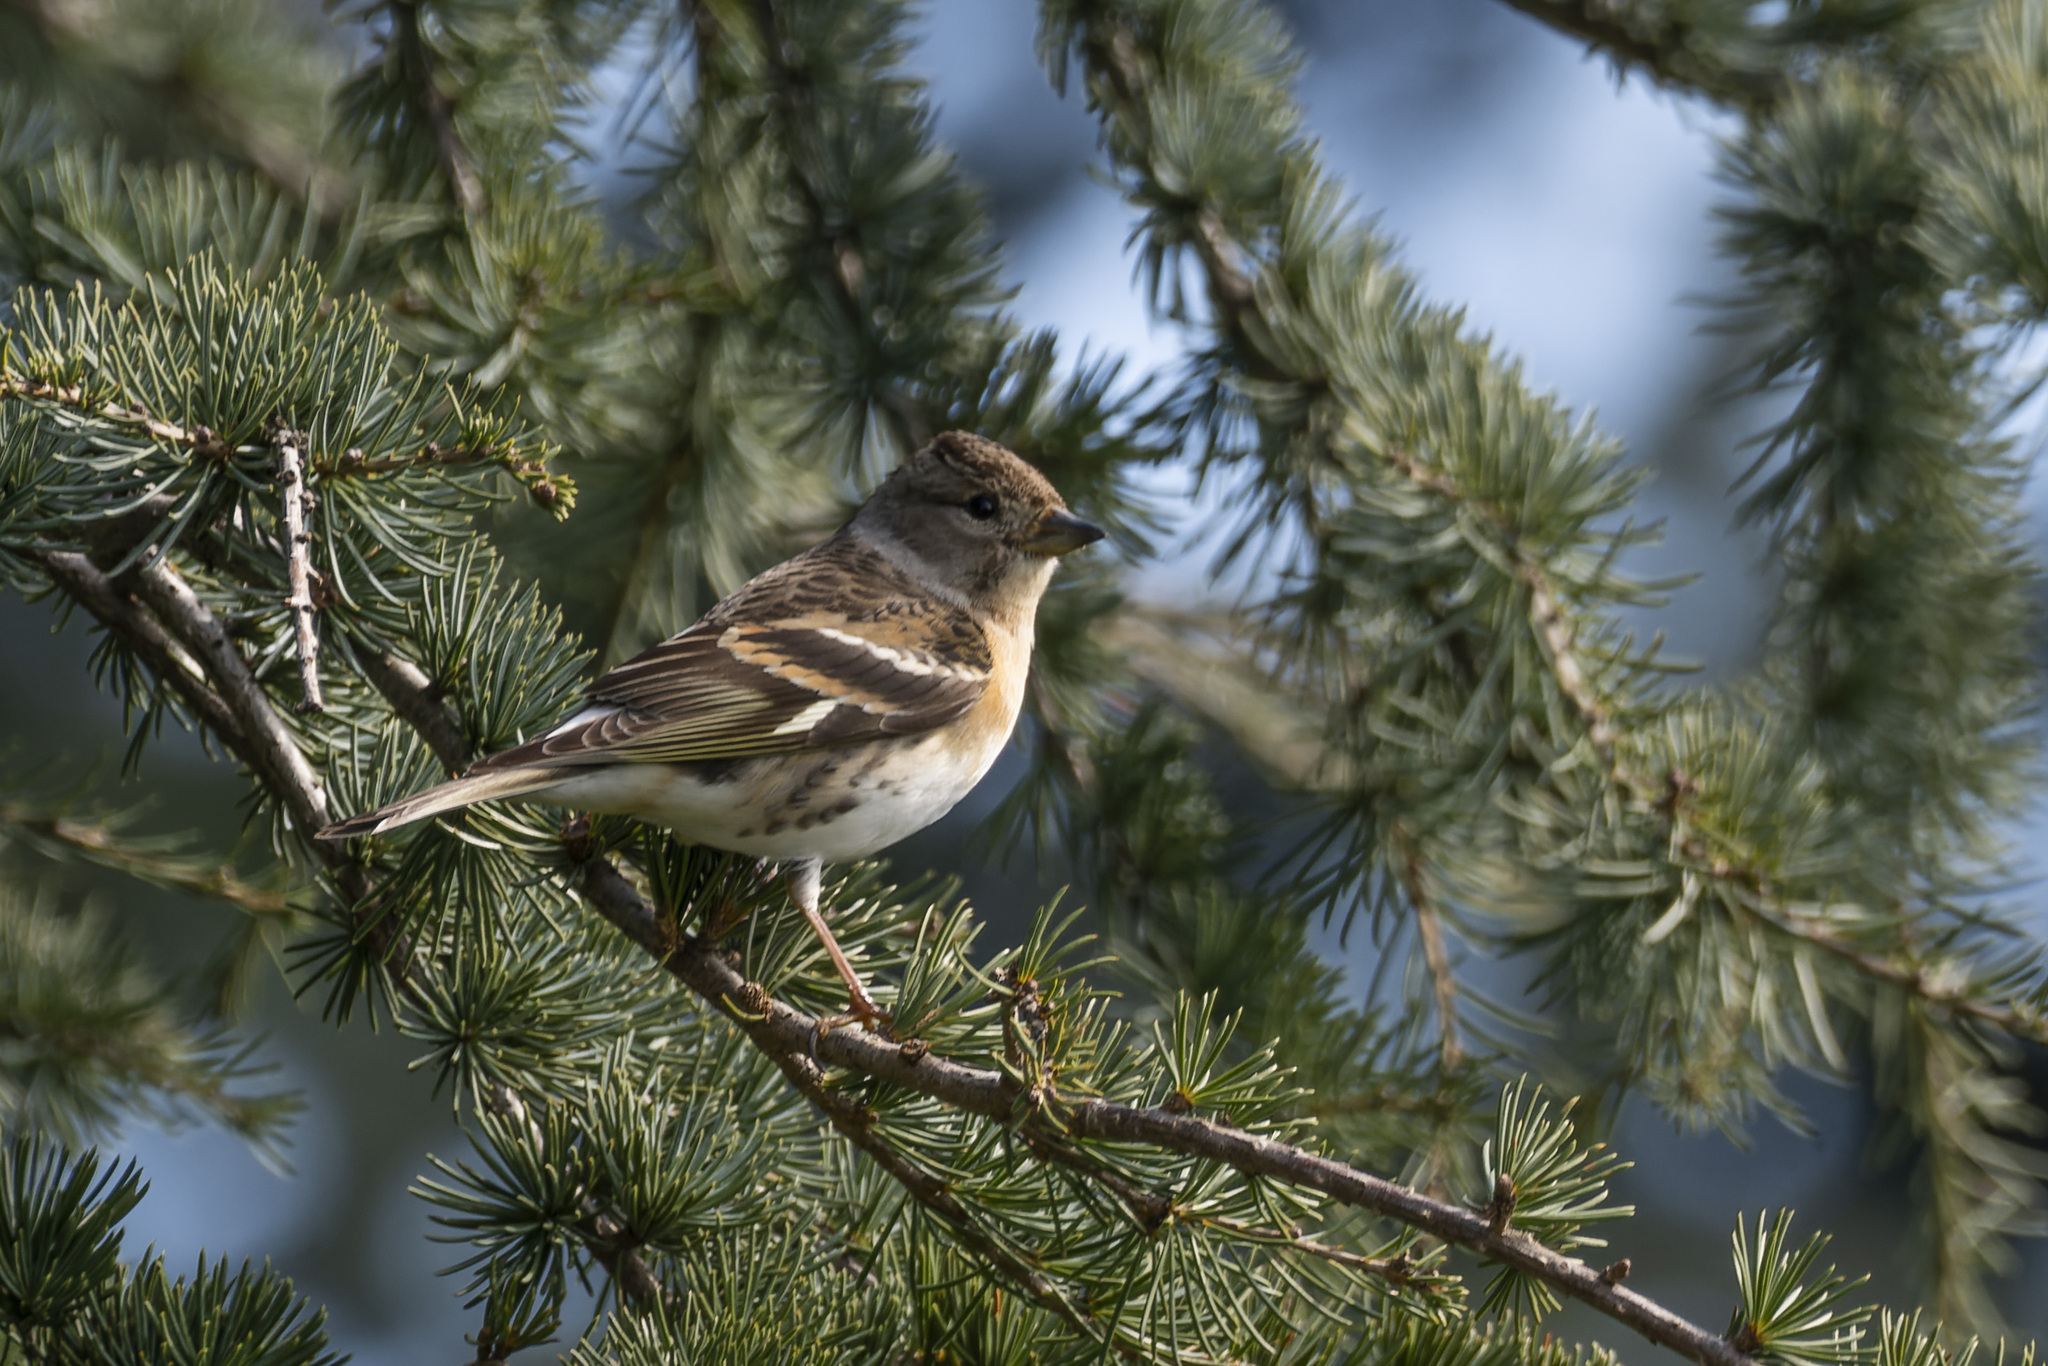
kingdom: Animalia
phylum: Chordata
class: Aves
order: Passeriformes
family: Fringillidae
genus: Fringilla
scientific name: Fringilla montifringilla
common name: Brambling
